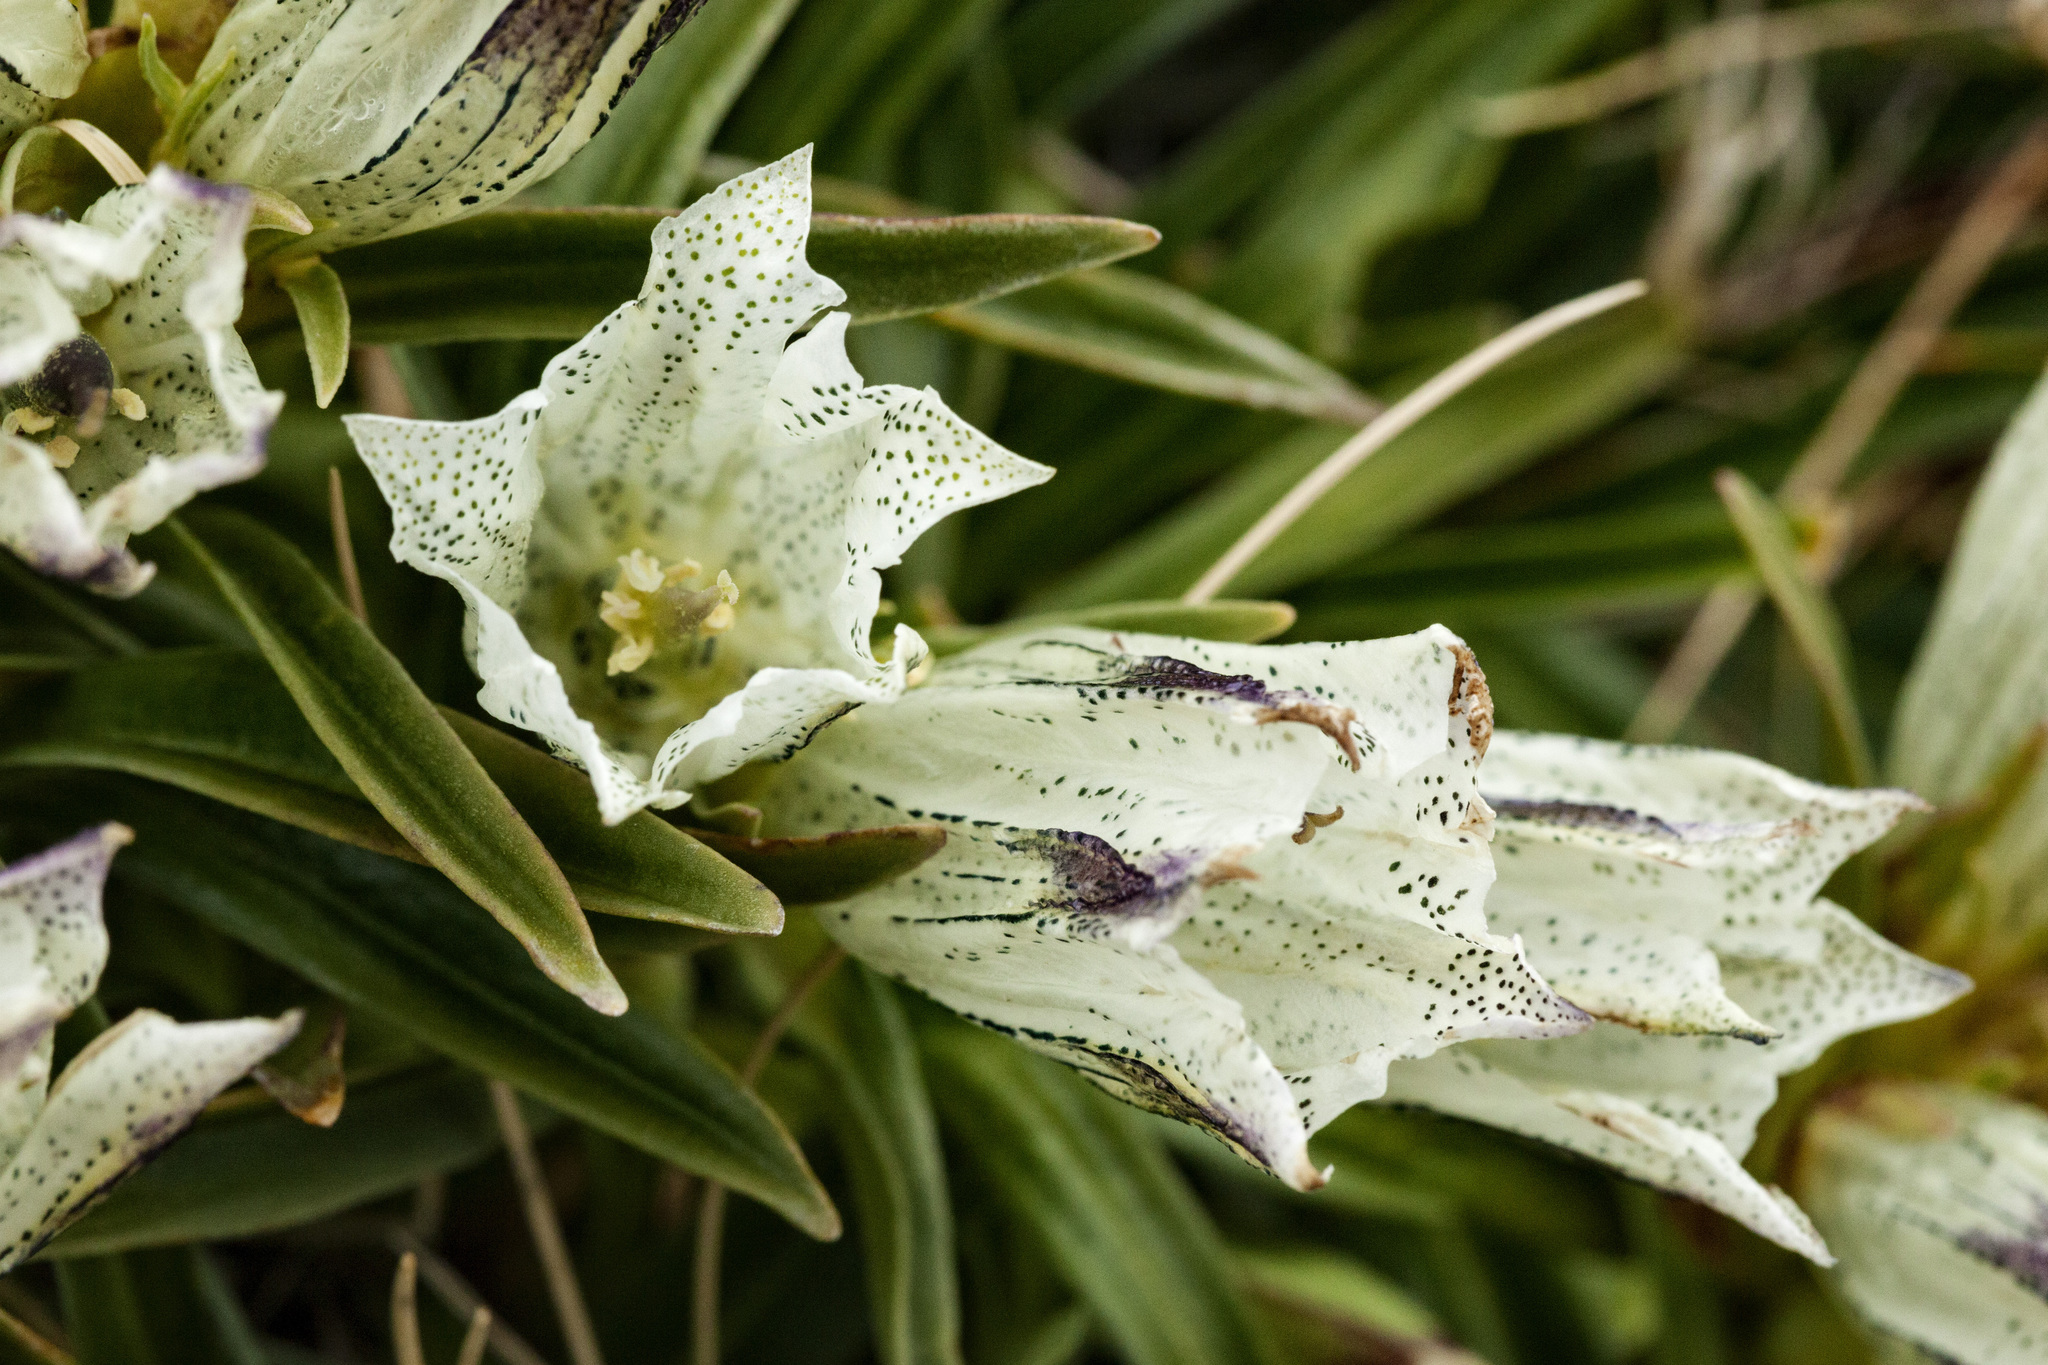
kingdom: Plantae
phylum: Tracheophyta
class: Magnoliopsida
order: Gentianales
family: Gentianaceae
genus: Gentiana
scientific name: Gentiana algida
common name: Arctic gentian
